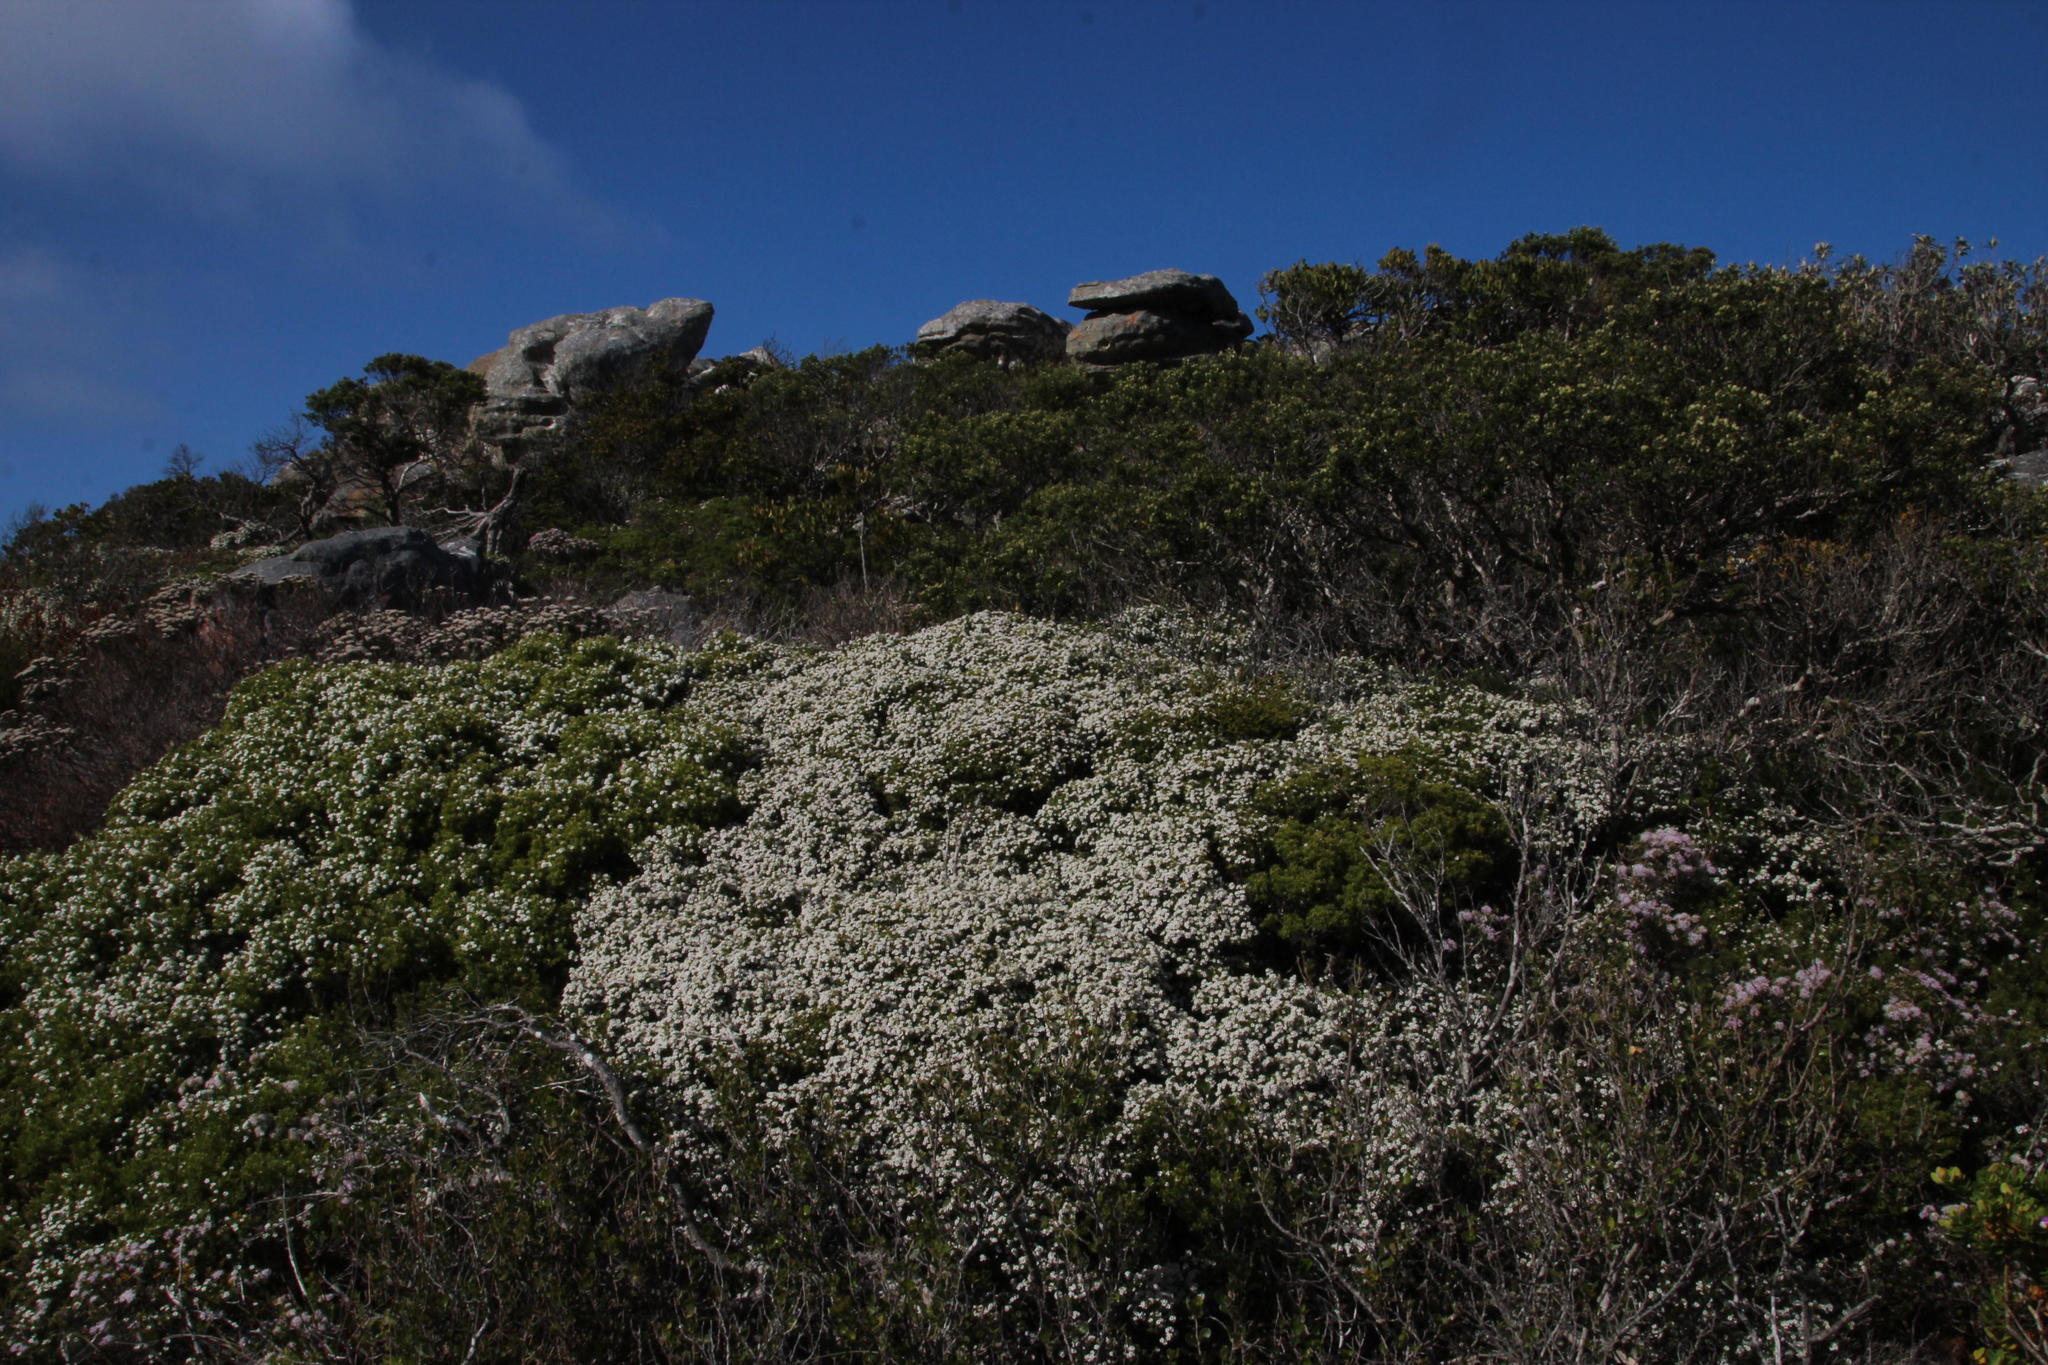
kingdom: Plantae
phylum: Tracheophyta
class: Magnoliopsida
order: Sapindales
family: Rutaceae
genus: Coleonema
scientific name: Coleonema album
